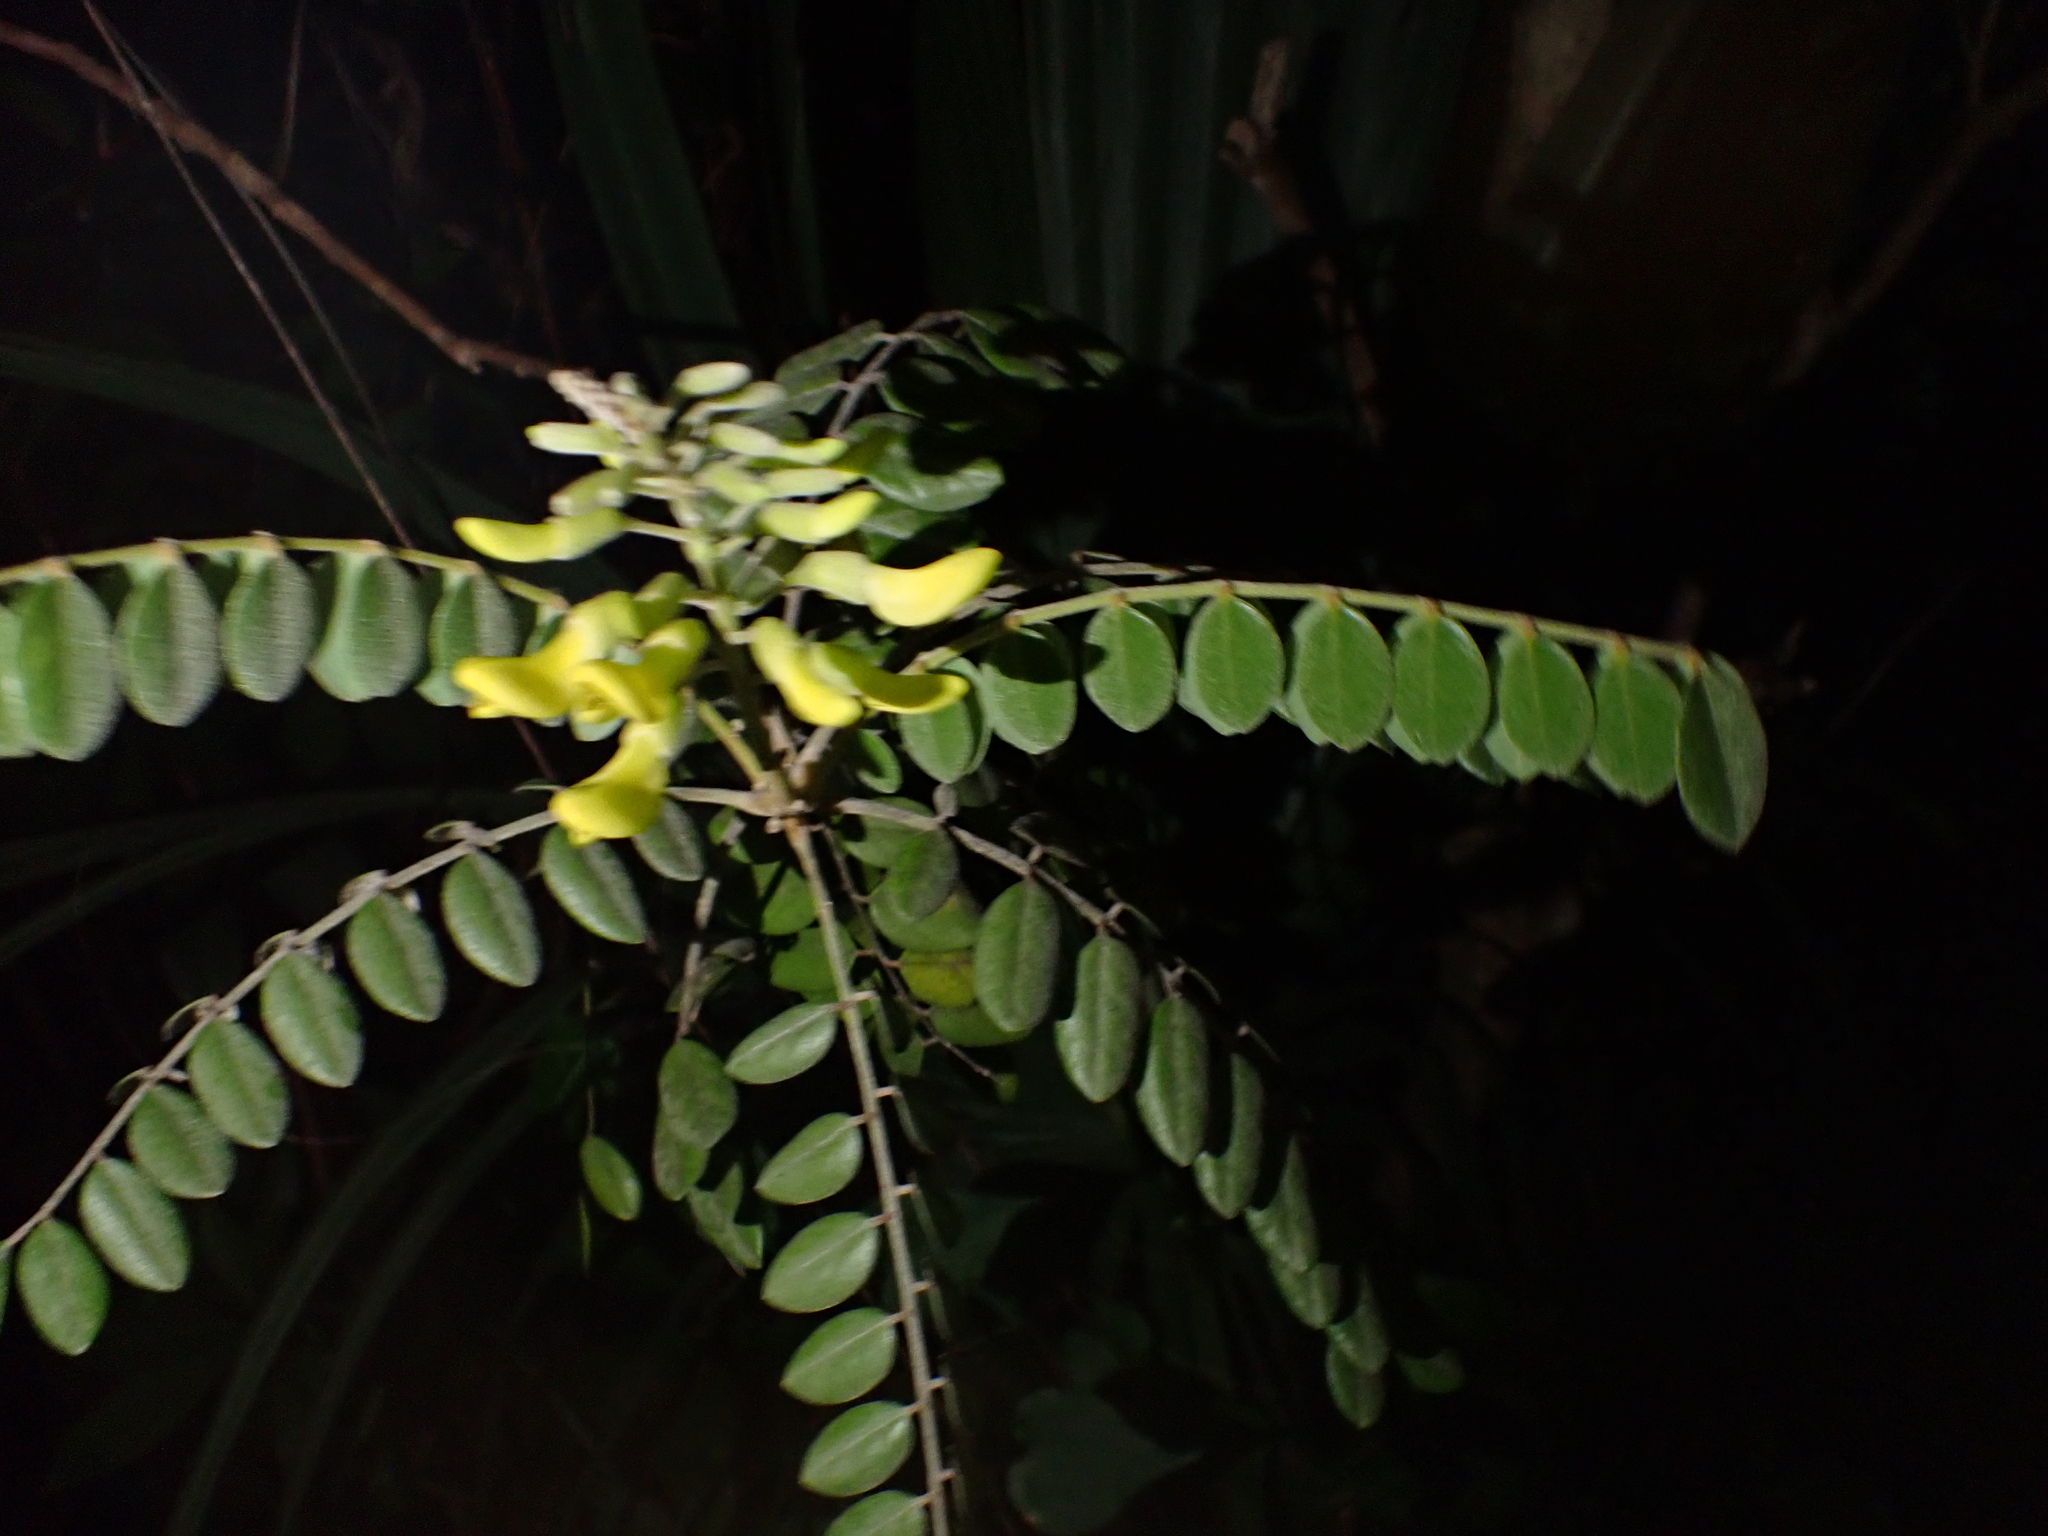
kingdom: Plantae
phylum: Tracheophyta
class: Magnoliopsida
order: Fabales
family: Fabaceae
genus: Sophora
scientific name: Sophora tomentosa
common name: Yellow necklacepod
